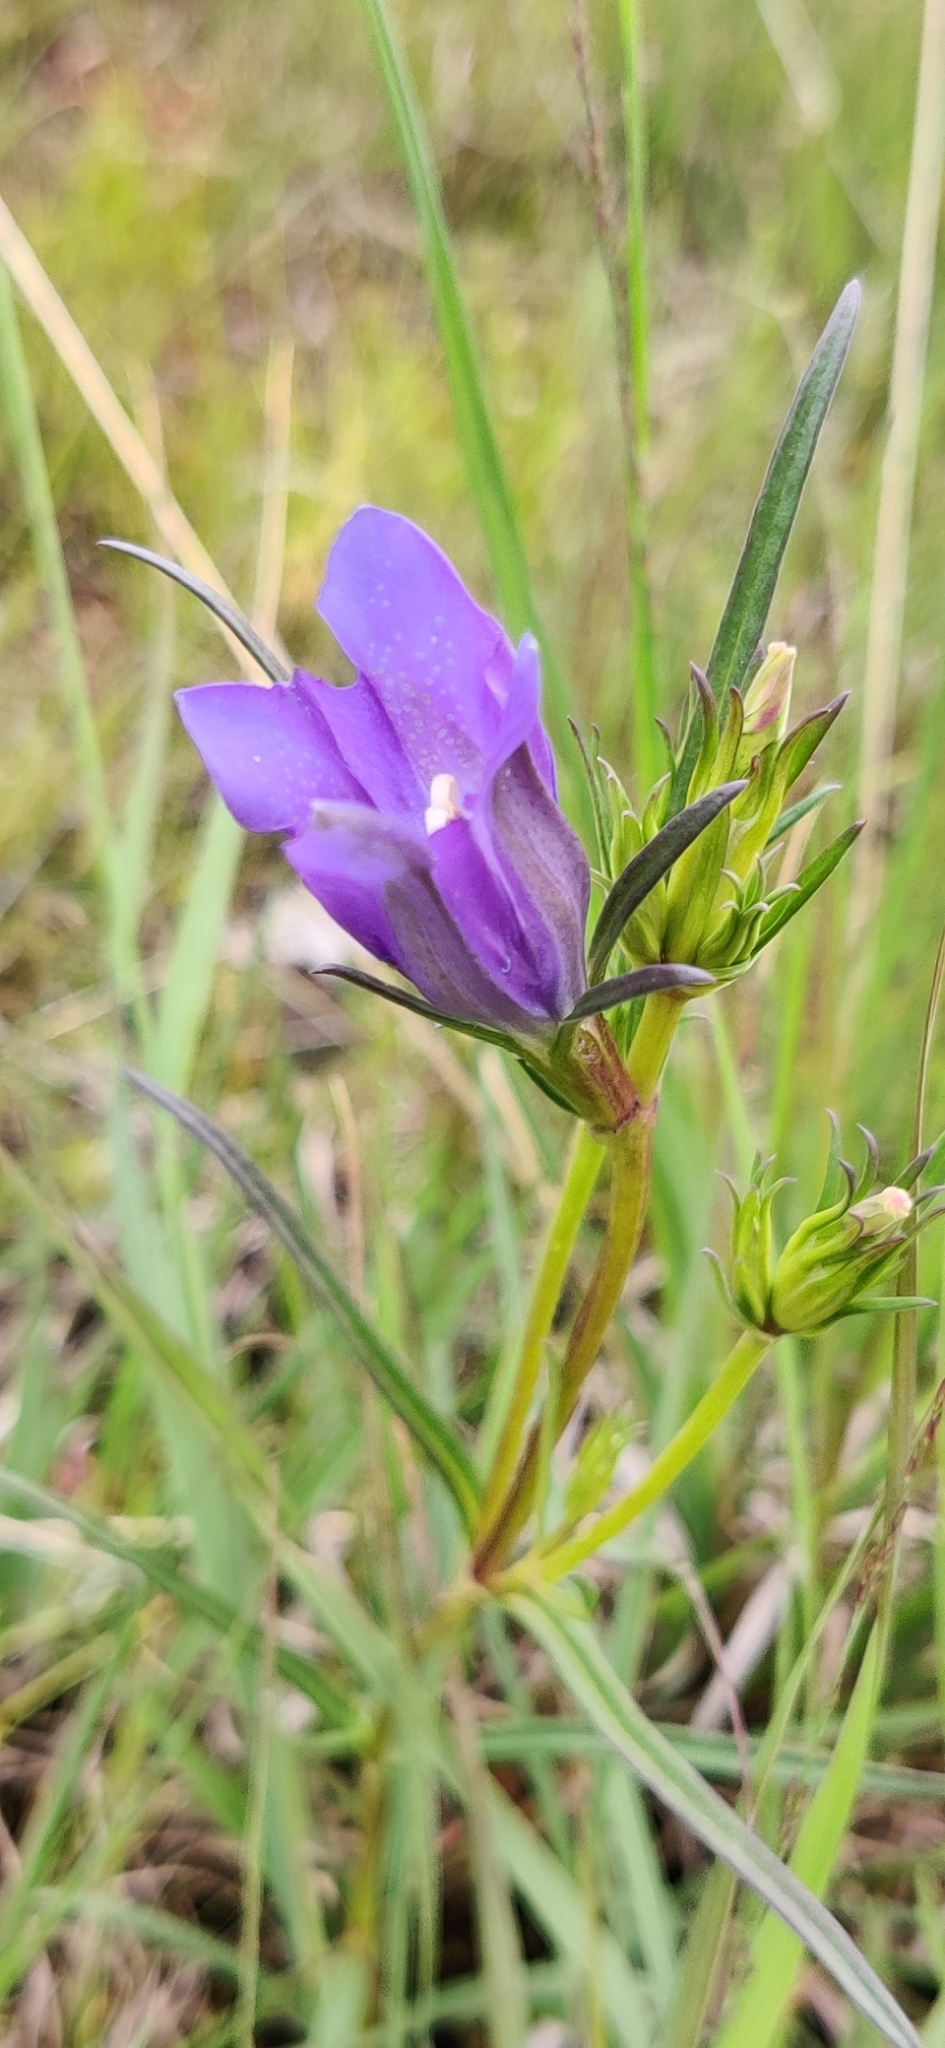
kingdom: Plantae
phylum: Tracheophyta
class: Magnoliopsida
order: Gentianales
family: Gentianaceae
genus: Gentiana
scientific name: Gentiana pneumonanthe
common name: Marsh gentian
